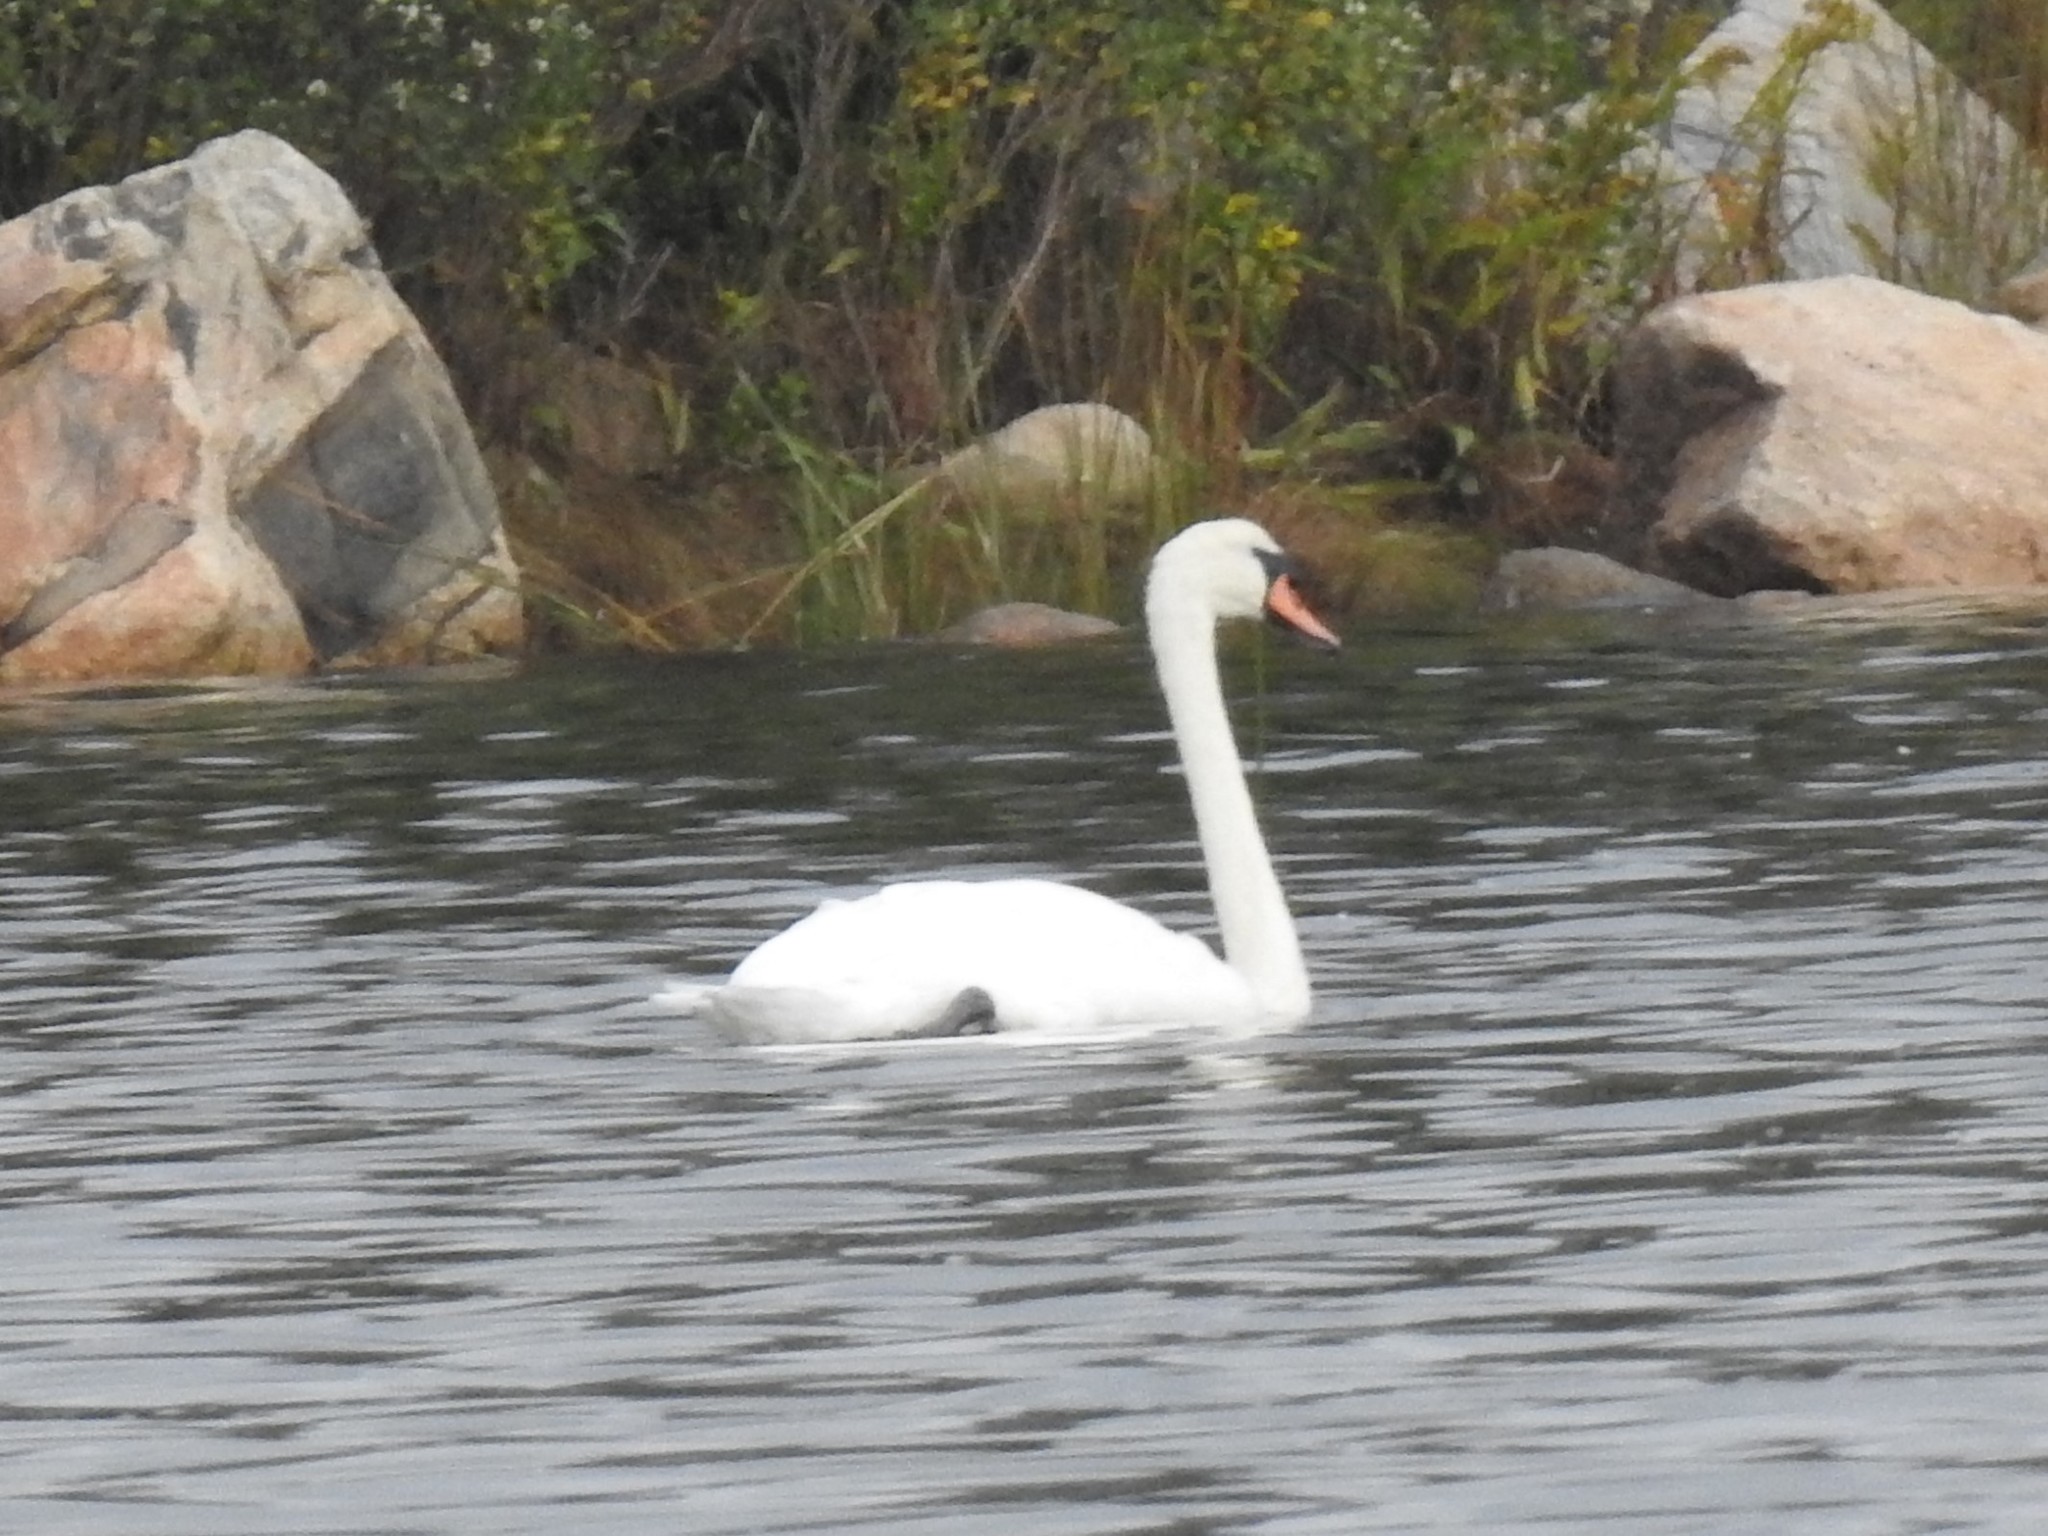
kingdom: Animalia
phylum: Chordata
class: Aves
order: Anseriformes
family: Anatidae
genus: Cygnus
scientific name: Cygnus olor
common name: Mute swan
